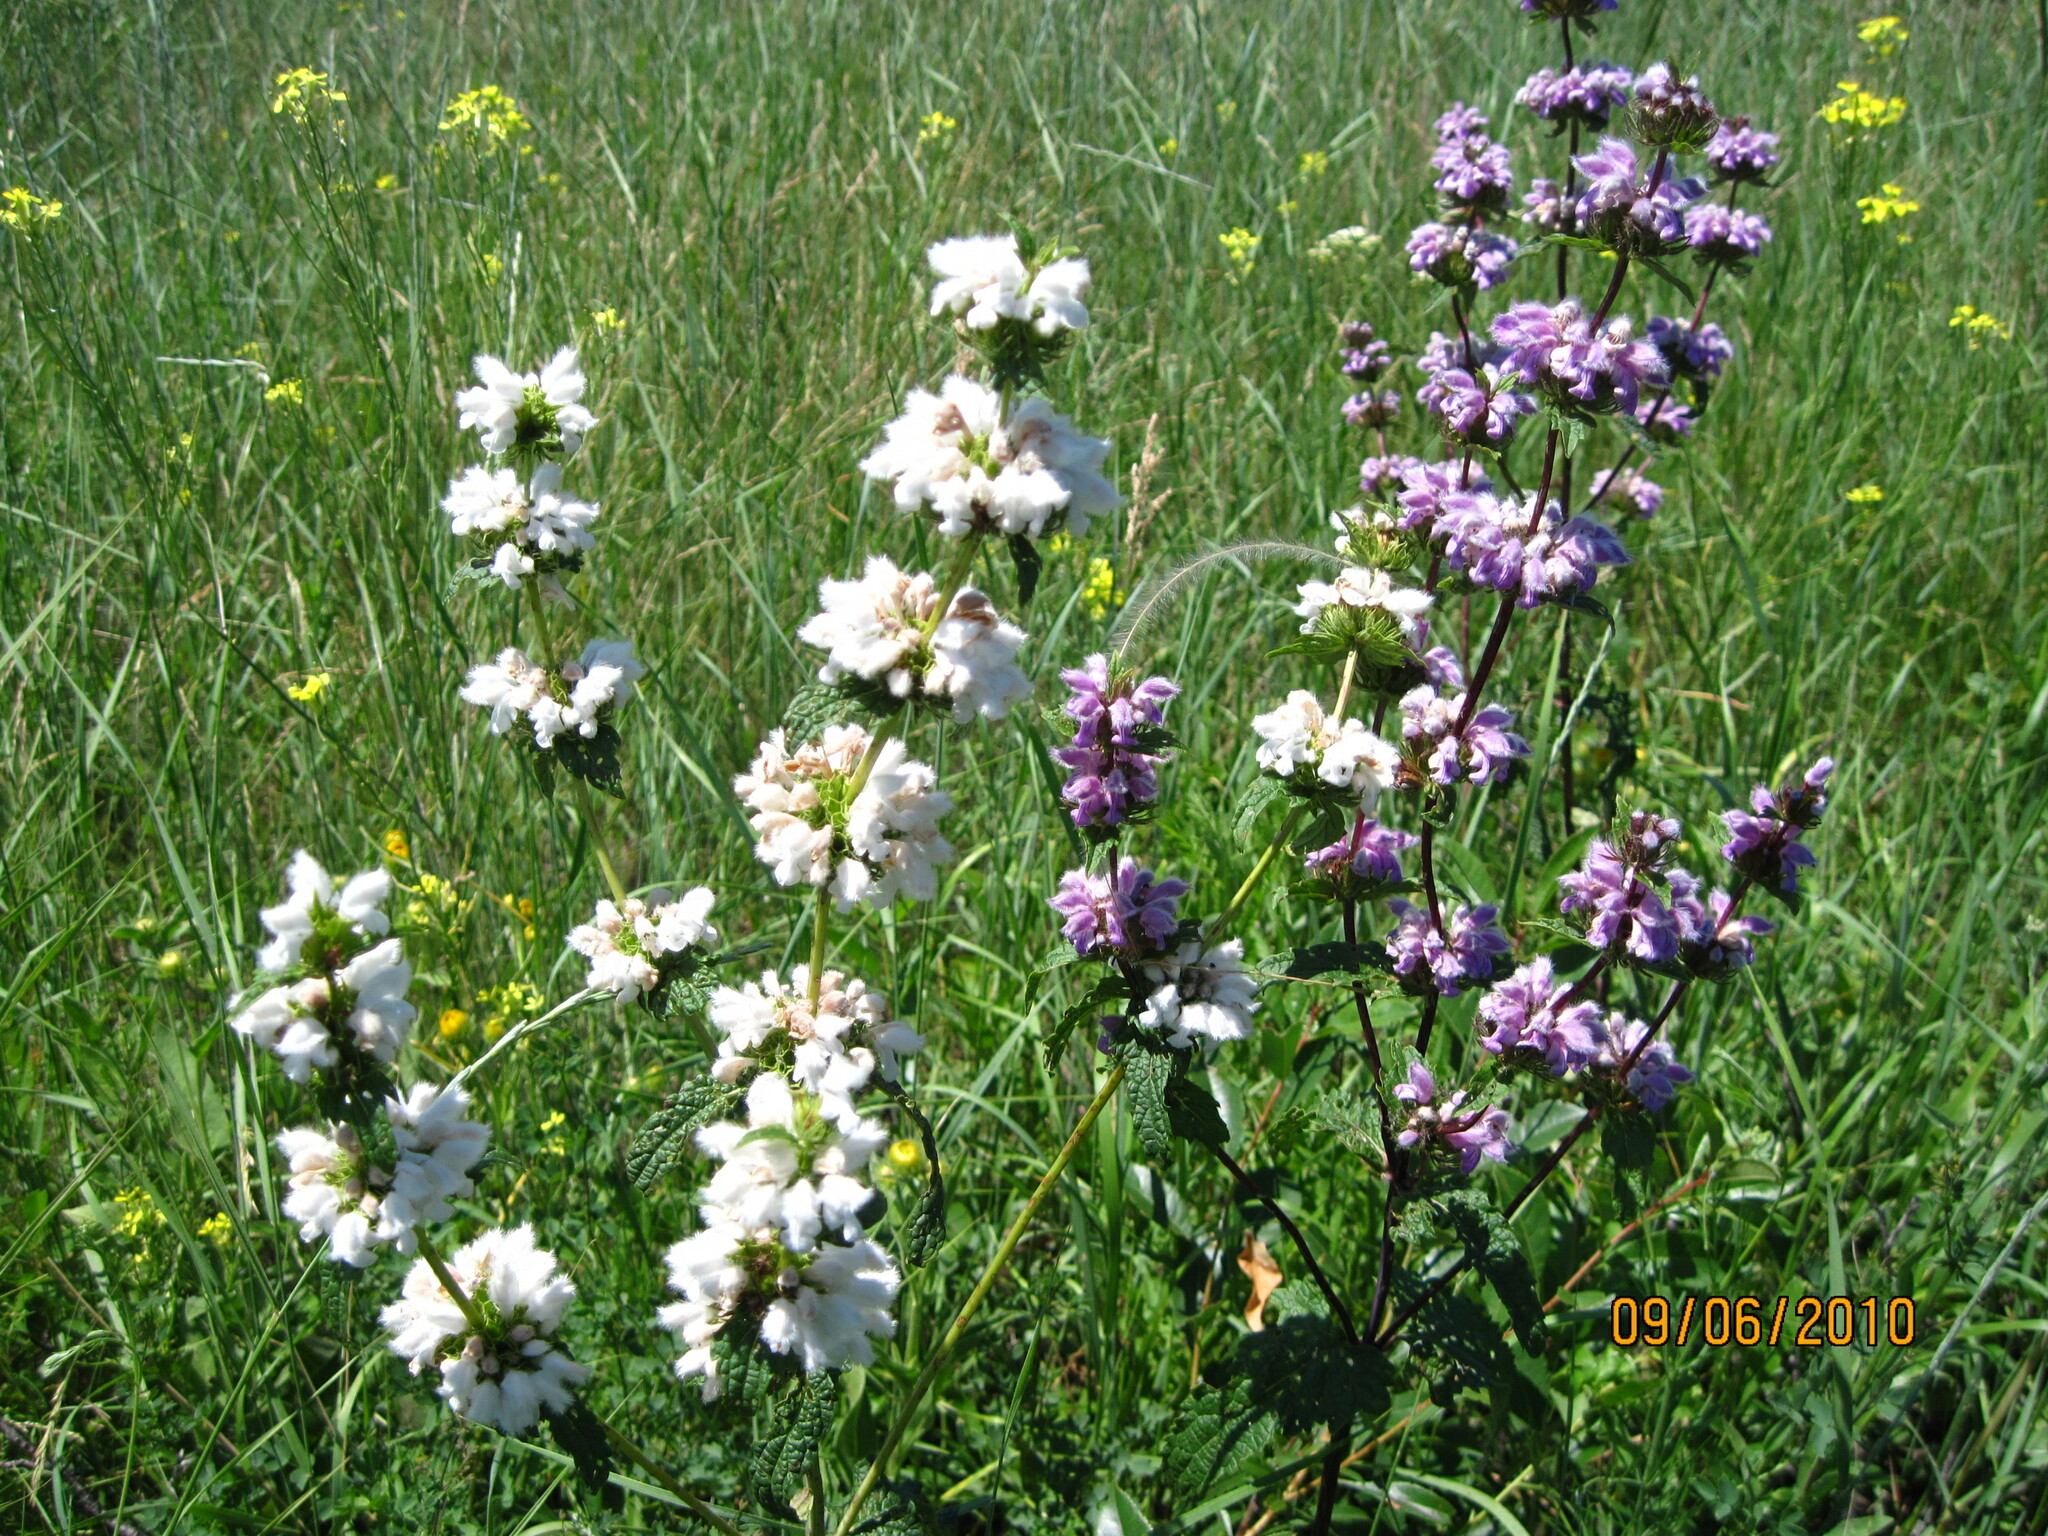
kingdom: Plantae
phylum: Tracheophyta
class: Magnoliopsida
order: Lamiales
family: Lamiaceae
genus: Phlomoides
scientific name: Phlomoides tuberosa
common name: Tuberous jerusalem sage
